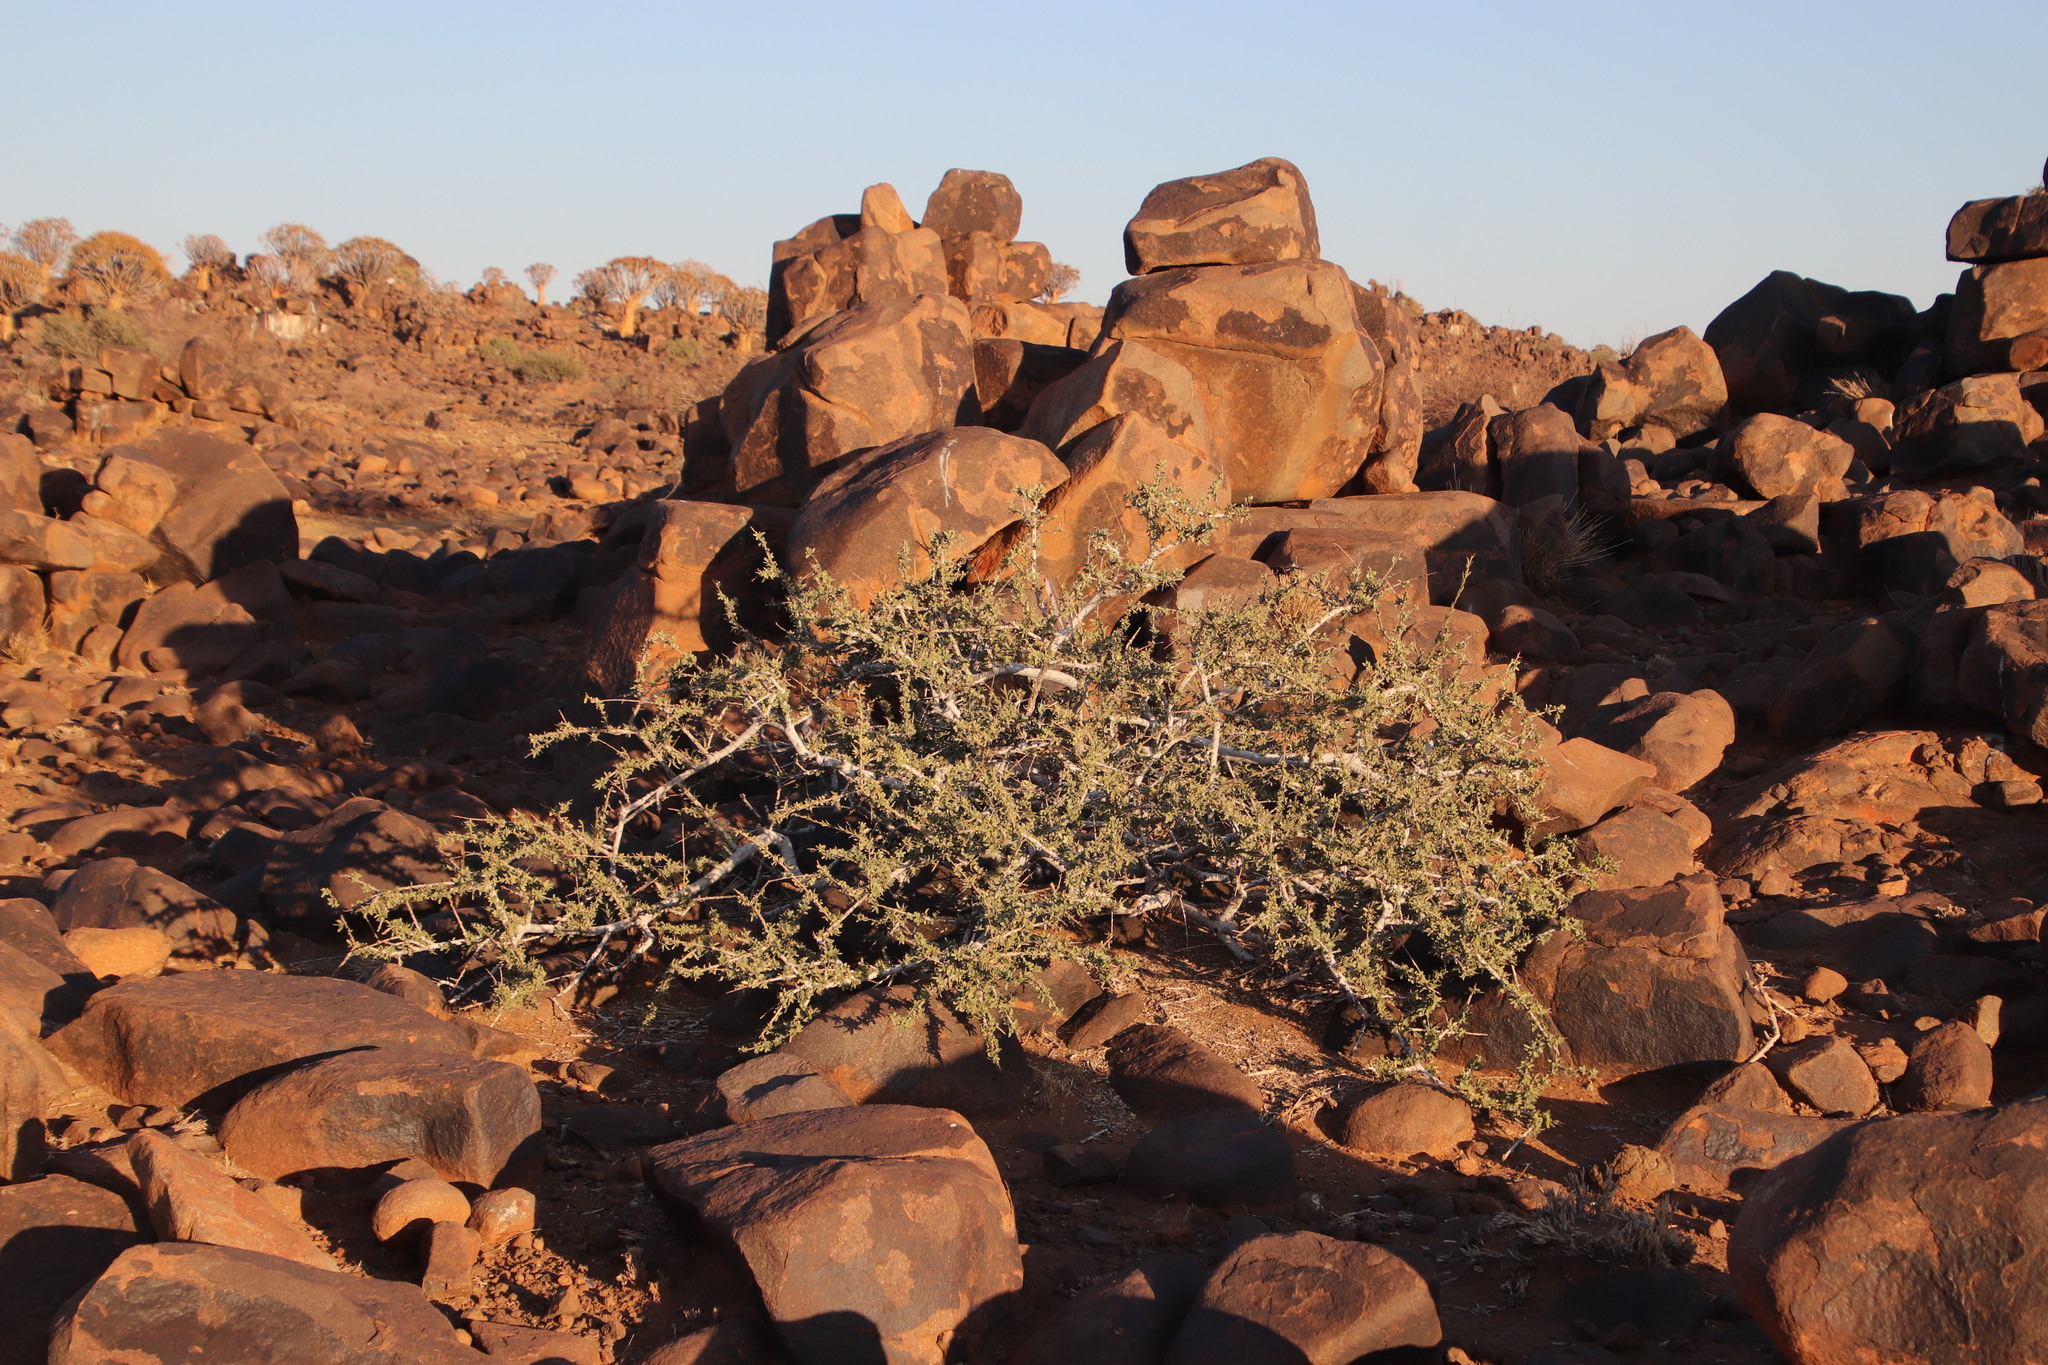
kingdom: Plantae
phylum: Tracheophyta
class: Magnoliopsida
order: Brassicales
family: Capparaceae
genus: Boscia
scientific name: Boscia foetida
